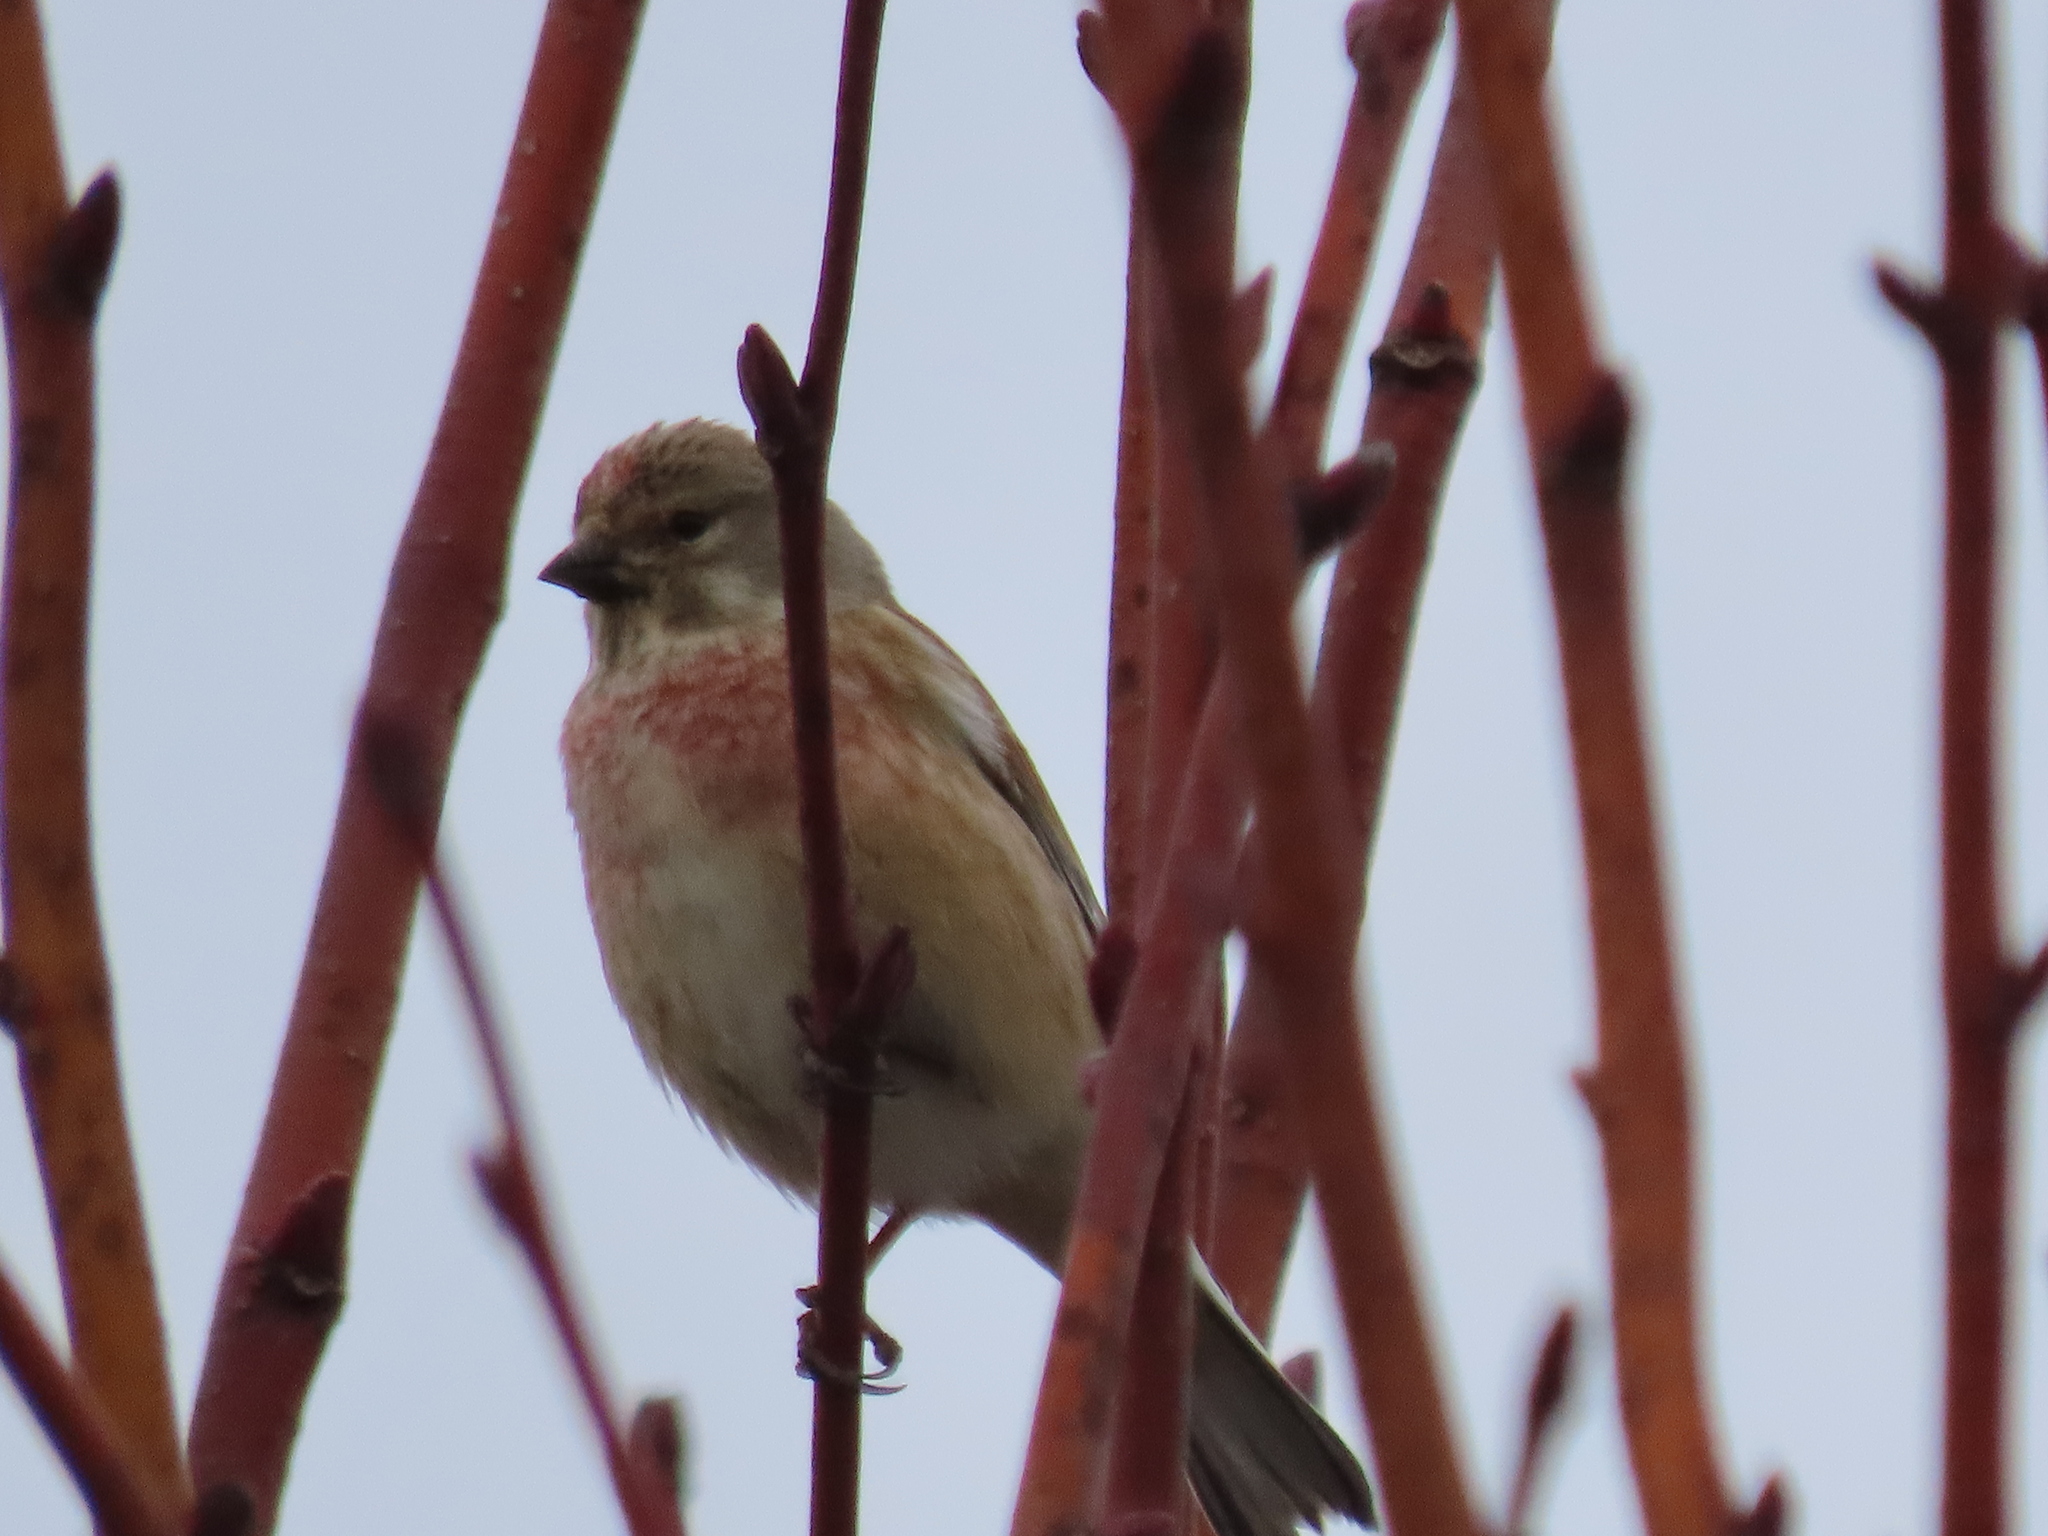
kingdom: Animalia
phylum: Chordata
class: Aves
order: Passeriformes
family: Fringillidae
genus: Linaria
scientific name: Linaria cannabina
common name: Common linnet
